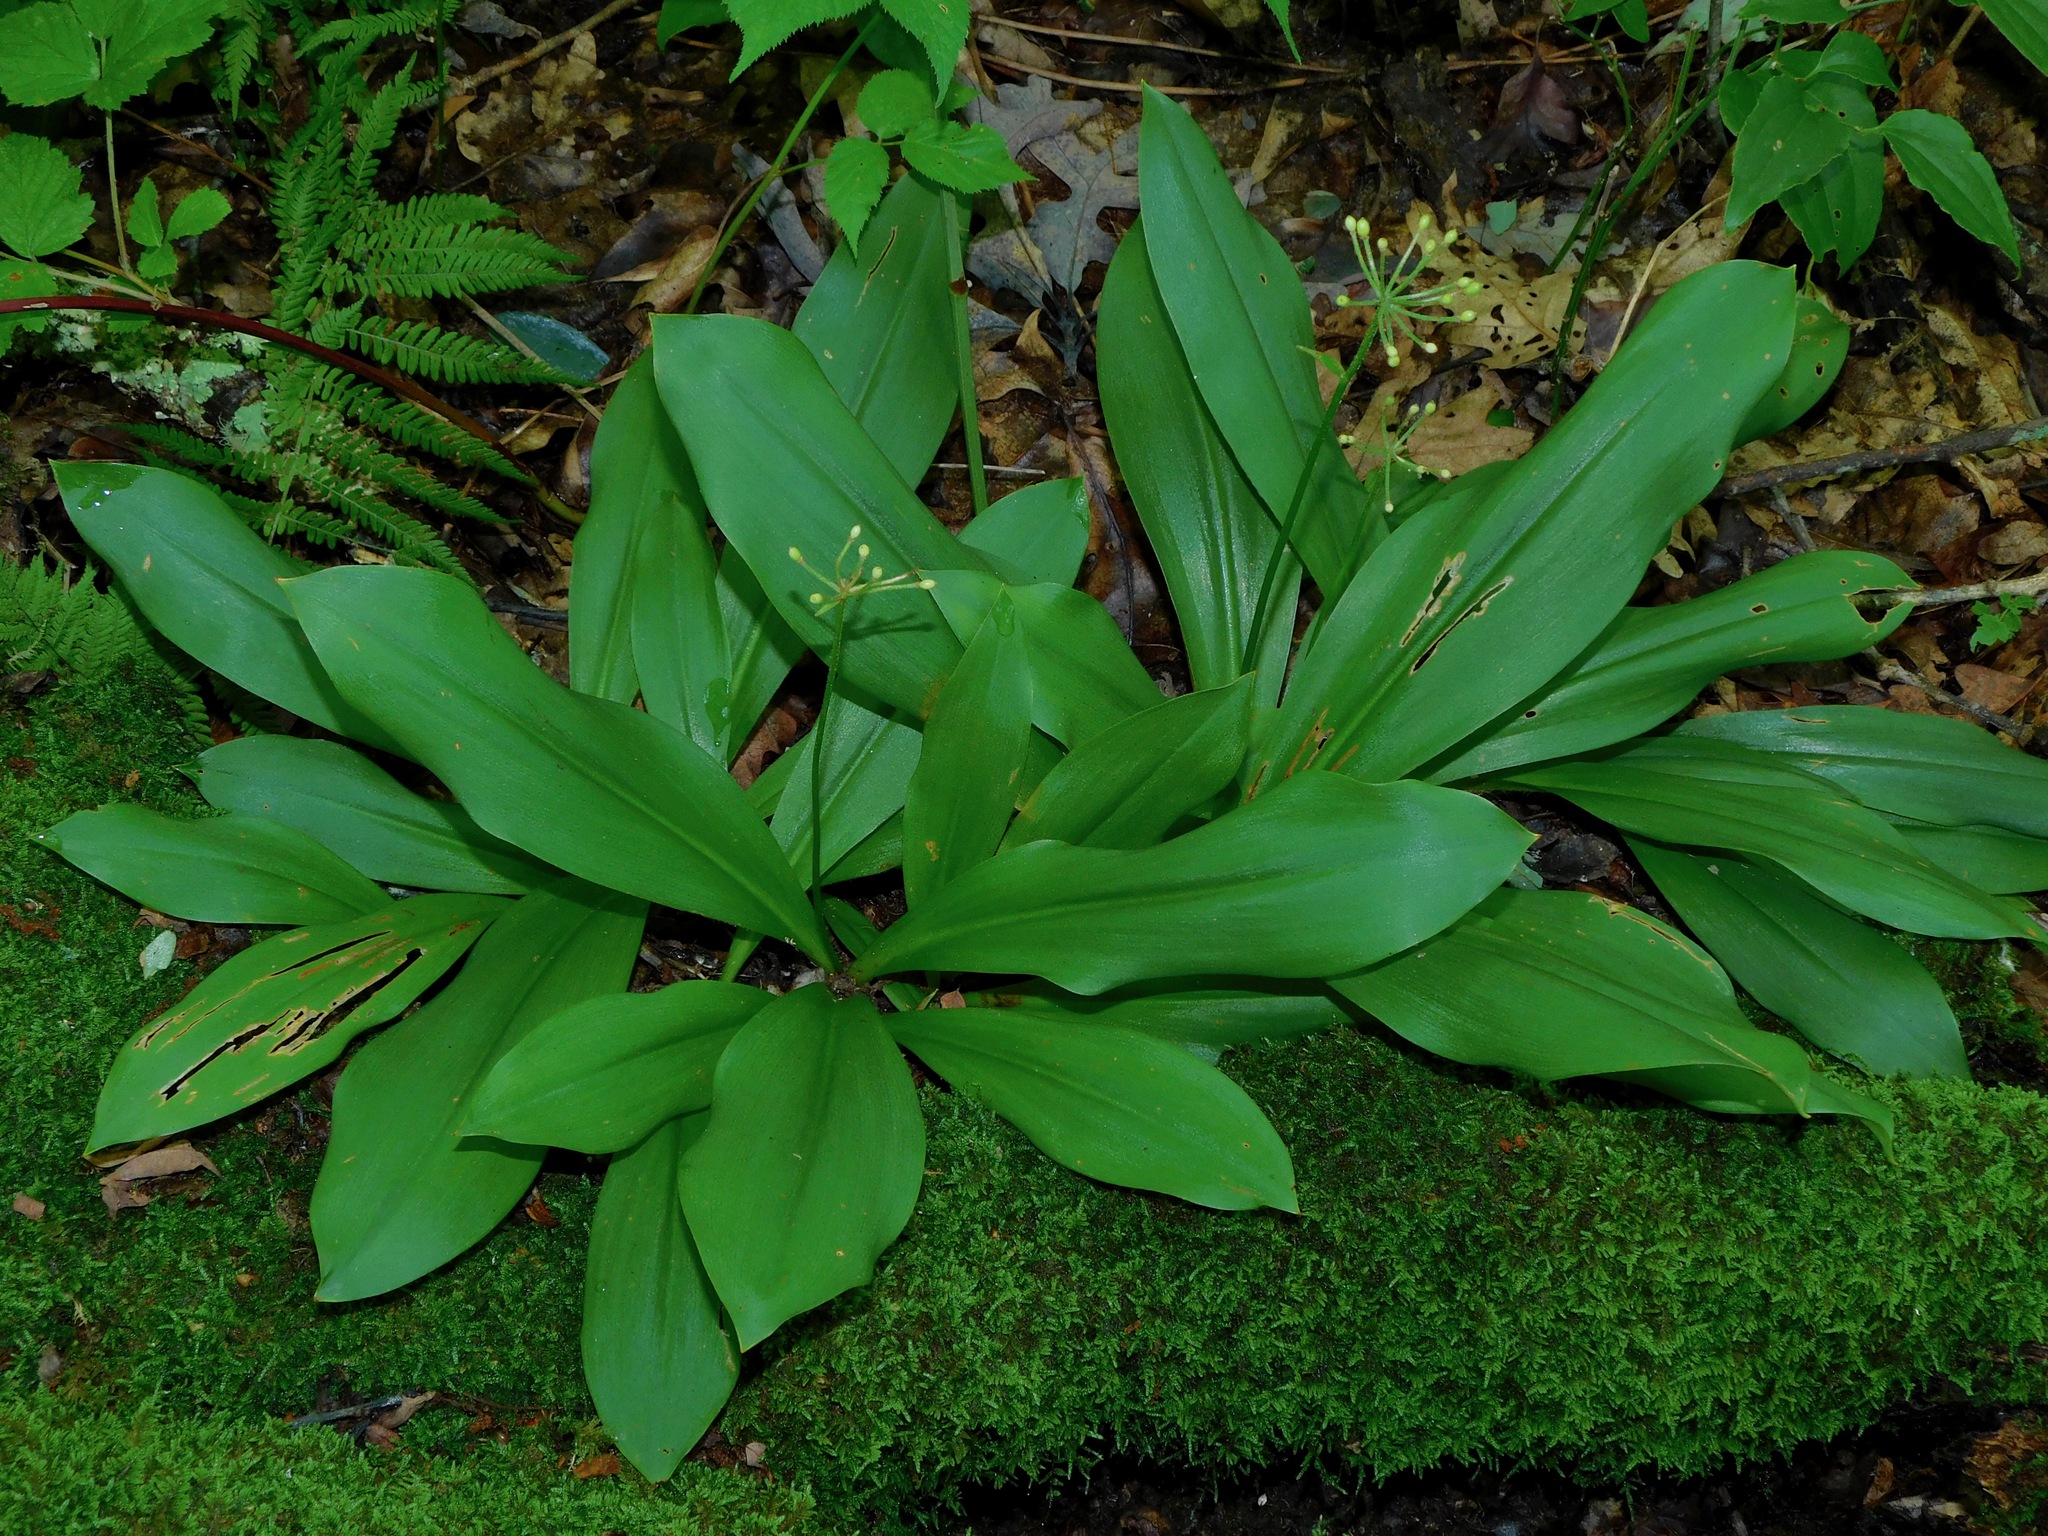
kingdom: Plantae
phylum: Tracheophyta
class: Liliopsida
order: Liliales
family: Liliaceae
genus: Clintonia
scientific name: Clintonia umbellulata
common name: Speckle wood-lily
